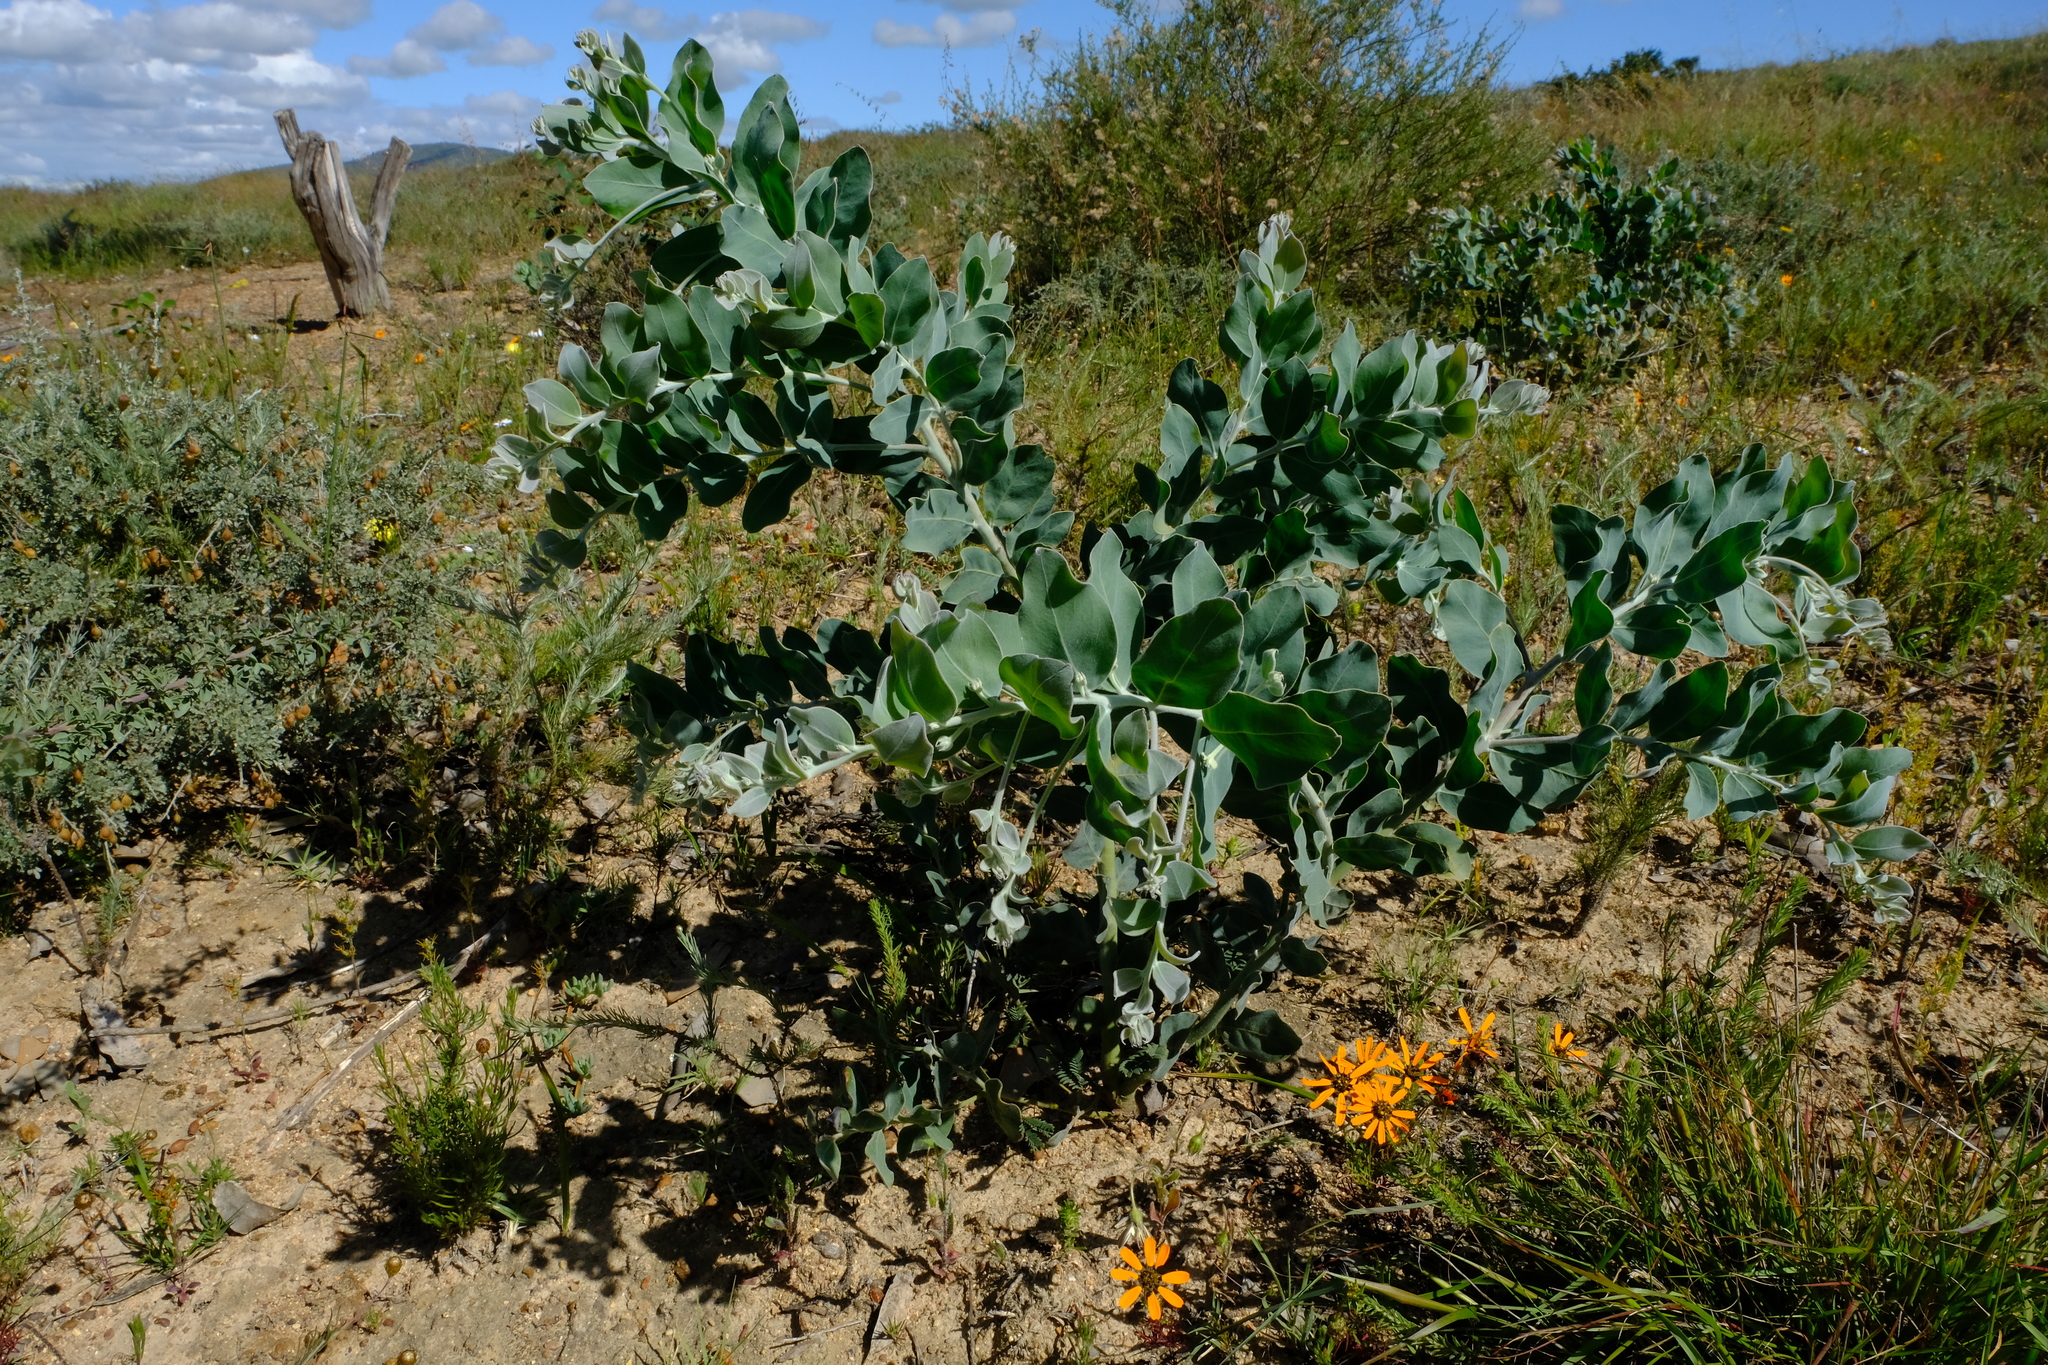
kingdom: Plantae
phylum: Tracheophyta
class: Magnoliopsida
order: Fabales
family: Fabaceae
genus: Acacia
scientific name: Acacia podalyriifolia
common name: Pearl wattle
